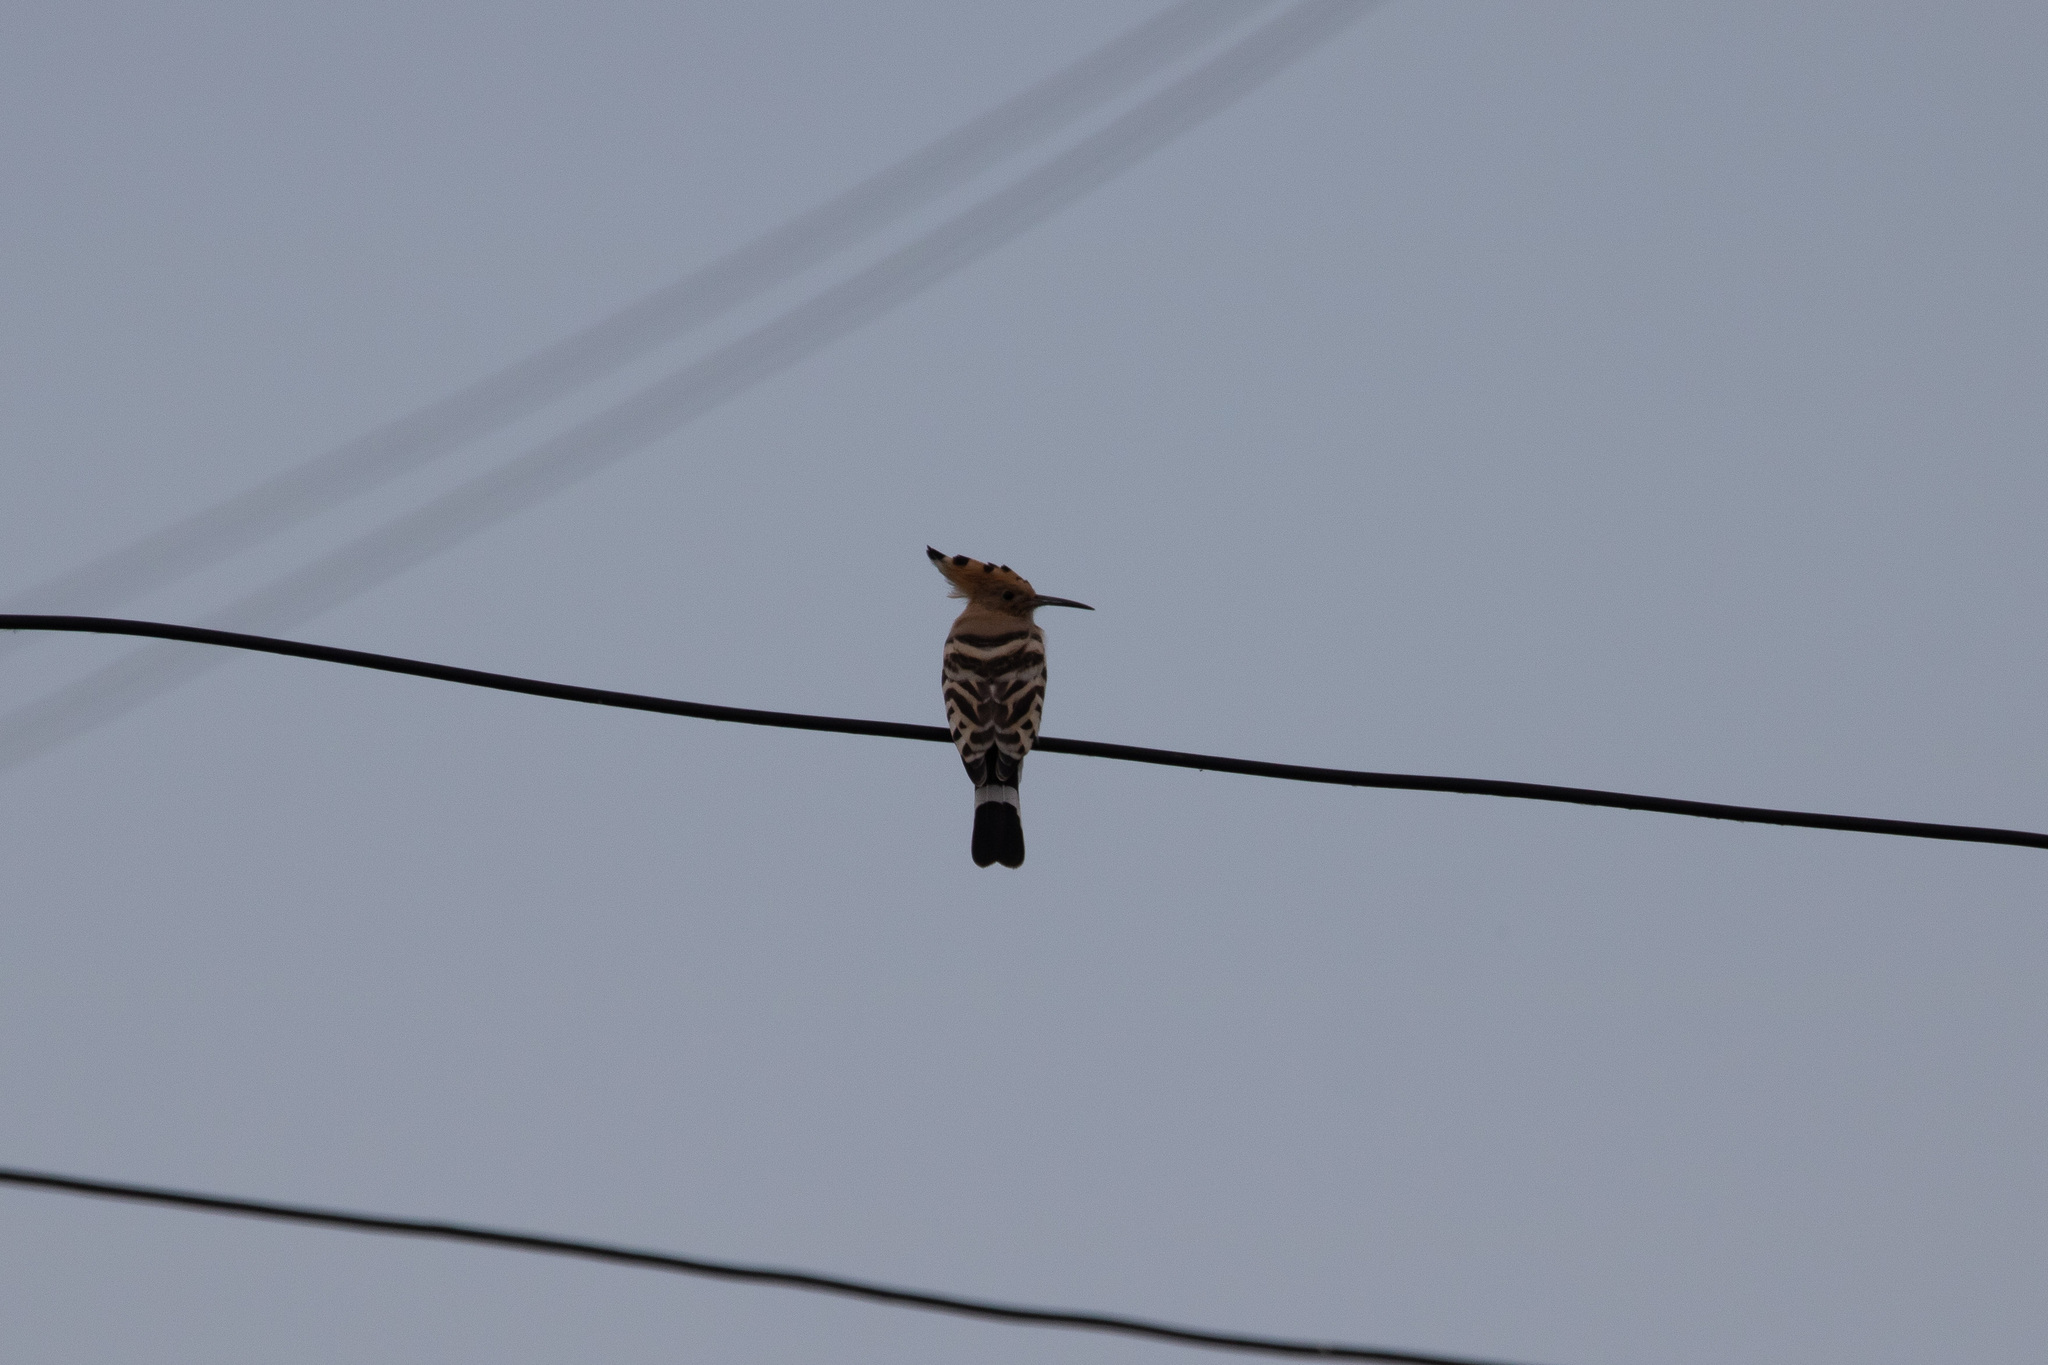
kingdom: Animalia
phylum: Chordata
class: Aves
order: Bucerotiformes
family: Upupidae
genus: Upupa
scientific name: Upupa epops
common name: Eurasian hoopoe
